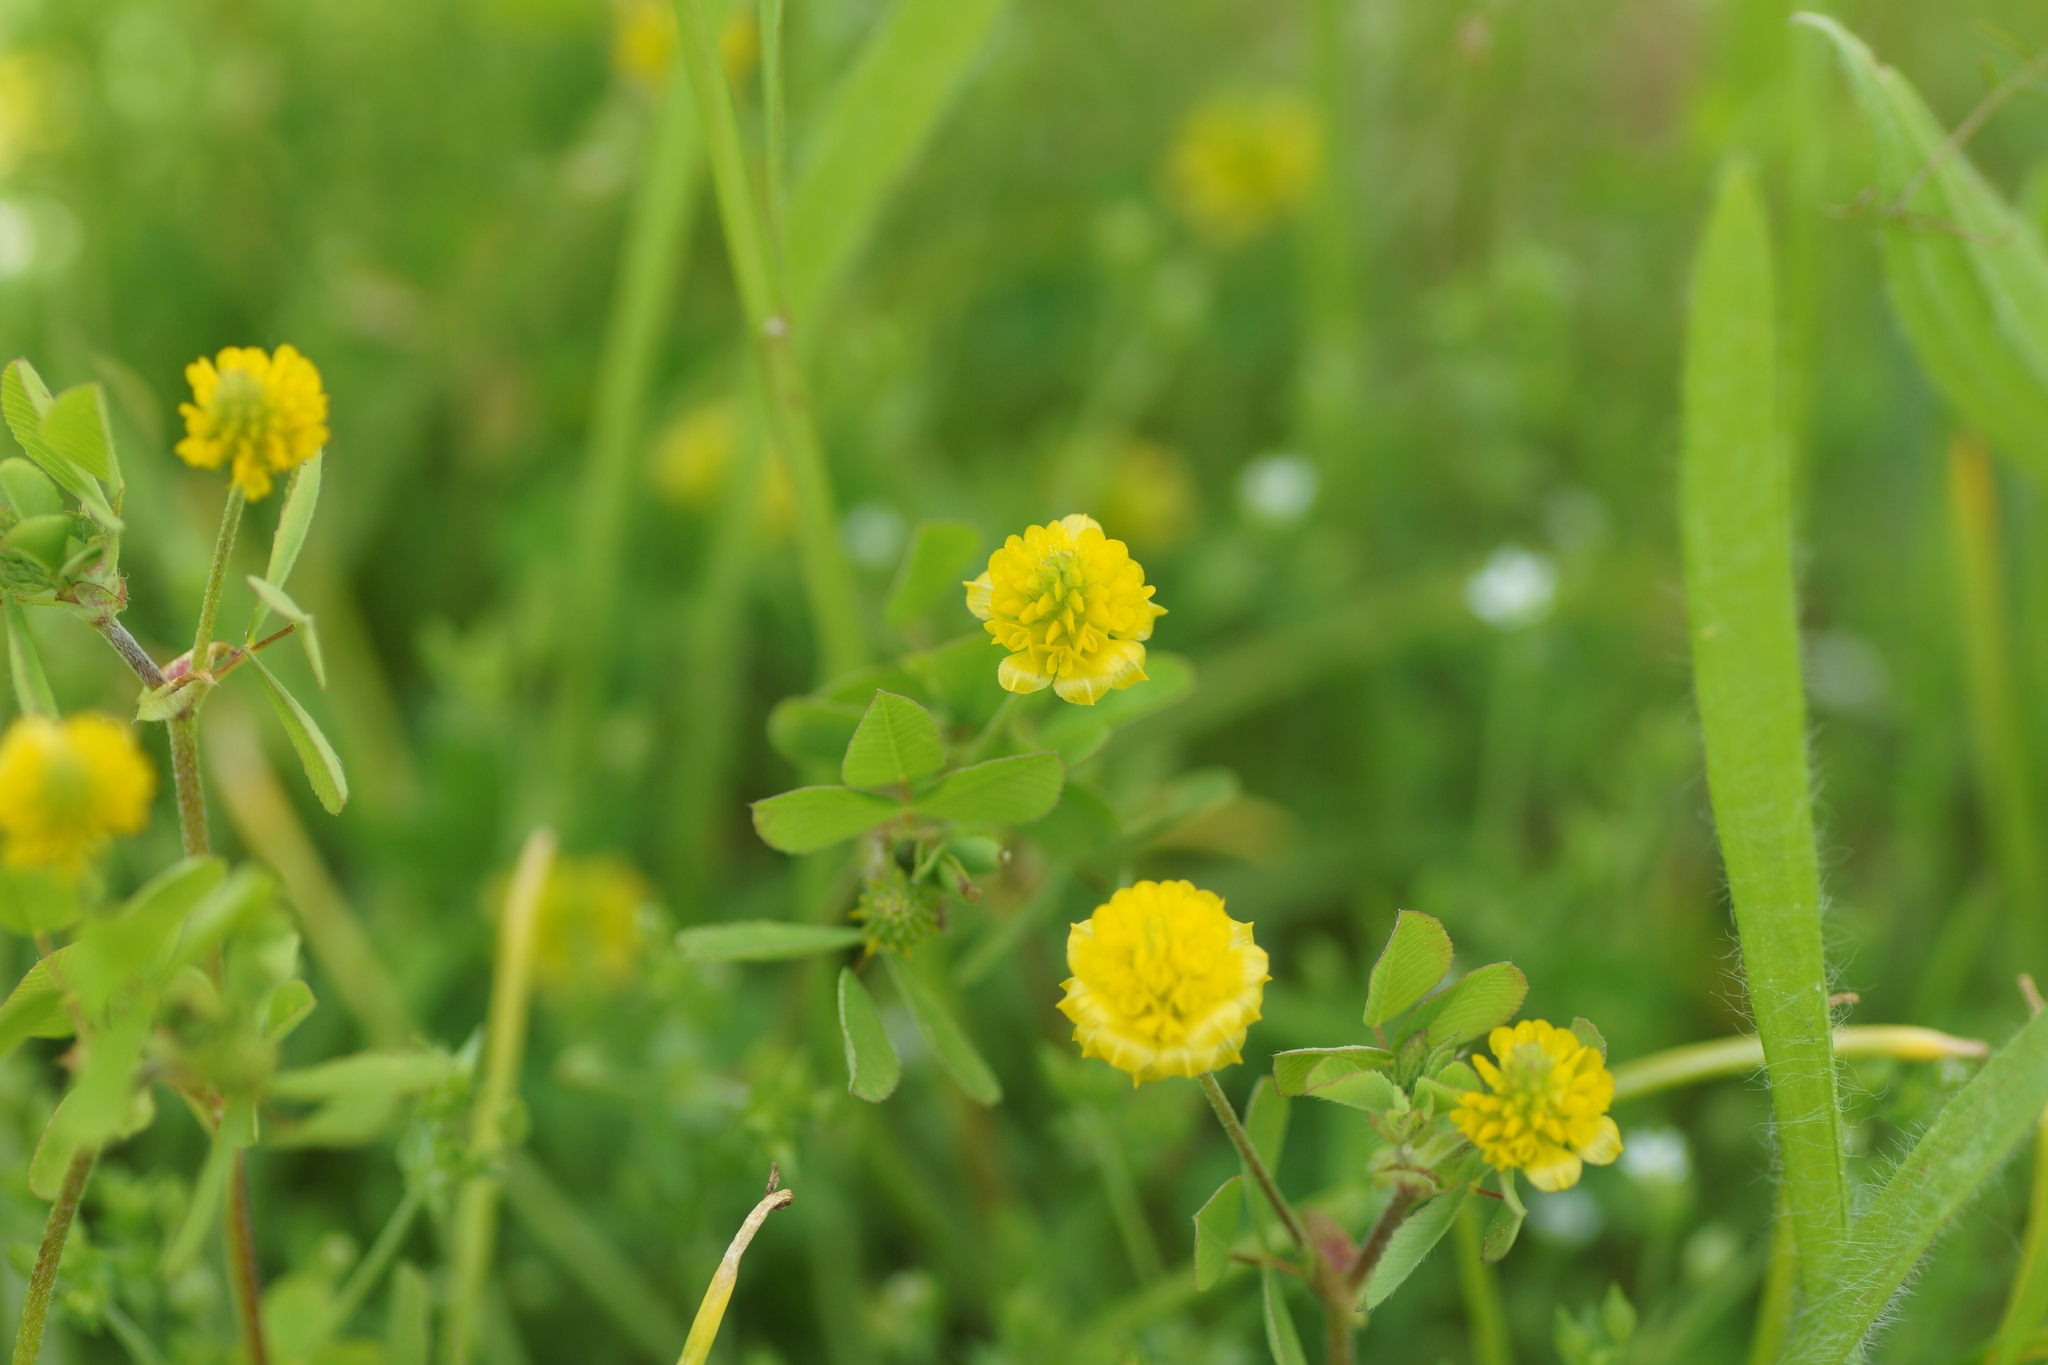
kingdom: Plantae
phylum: Tracheophyta
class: Magnoliopsida
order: Fabales
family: Fabaceae
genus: Trifolium
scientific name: Trifolium campestre
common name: Field clover
